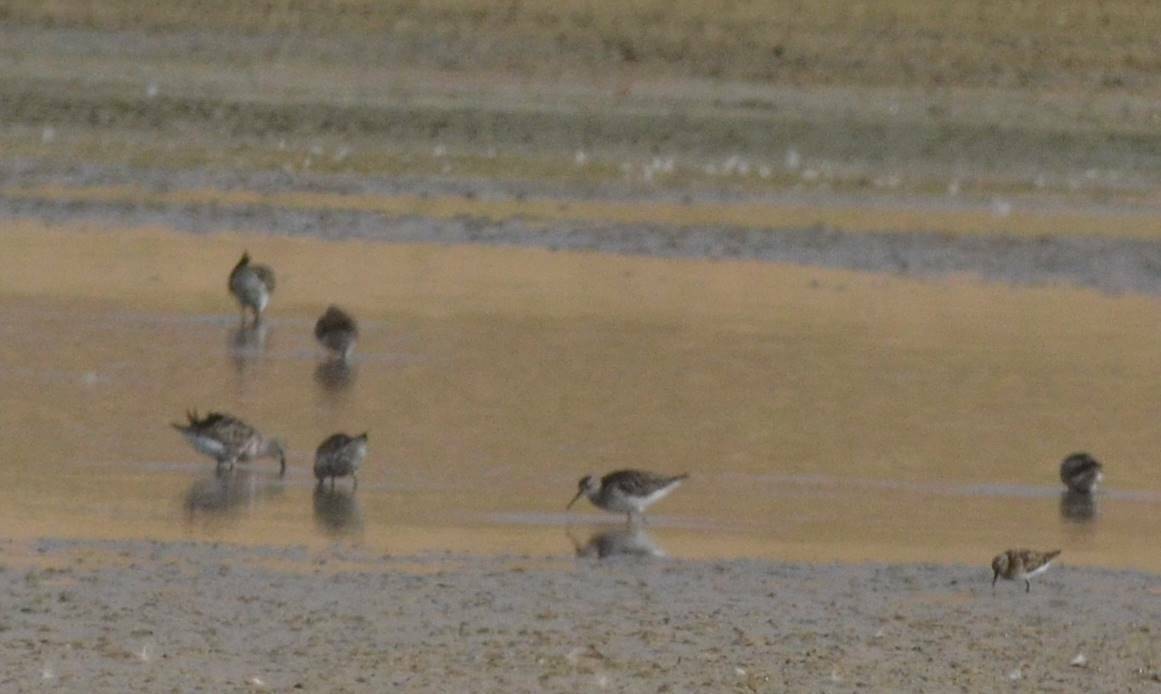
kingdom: Animalia
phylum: Chordata
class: Aves
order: Charadriiformes
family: Scolopacidae
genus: Tringa
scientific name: Tringa glareola
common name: Wood sandpiper
